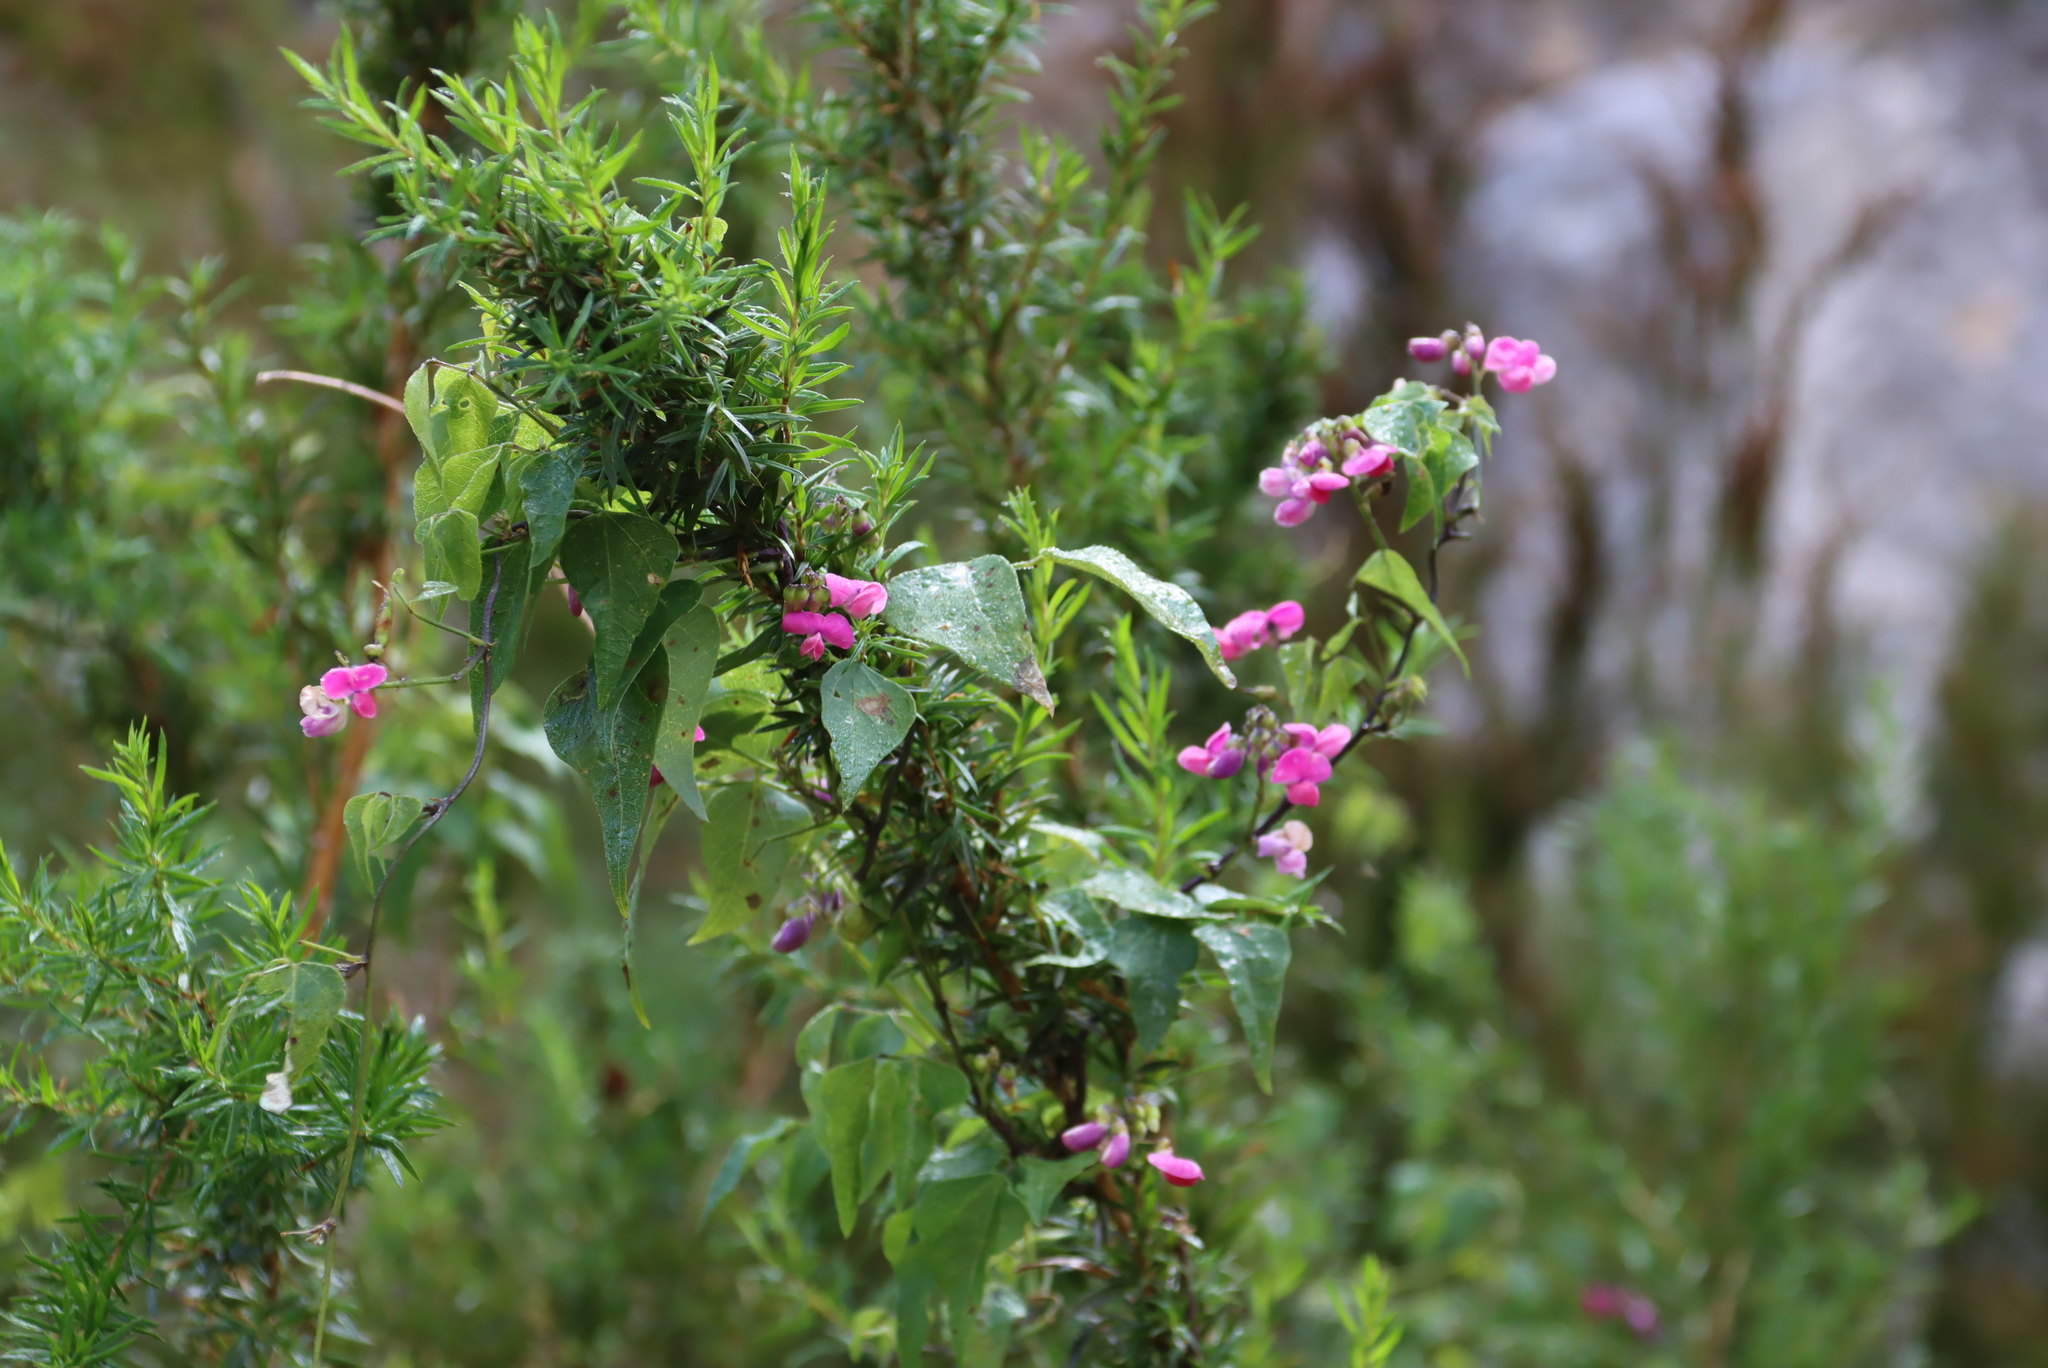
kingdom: Plantae
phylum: Tracheophyta
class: Magnoliopsida
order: Fabales
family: Fabaceae
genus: Dipogon
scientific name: Dipogon lignosus
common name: Okie bean
